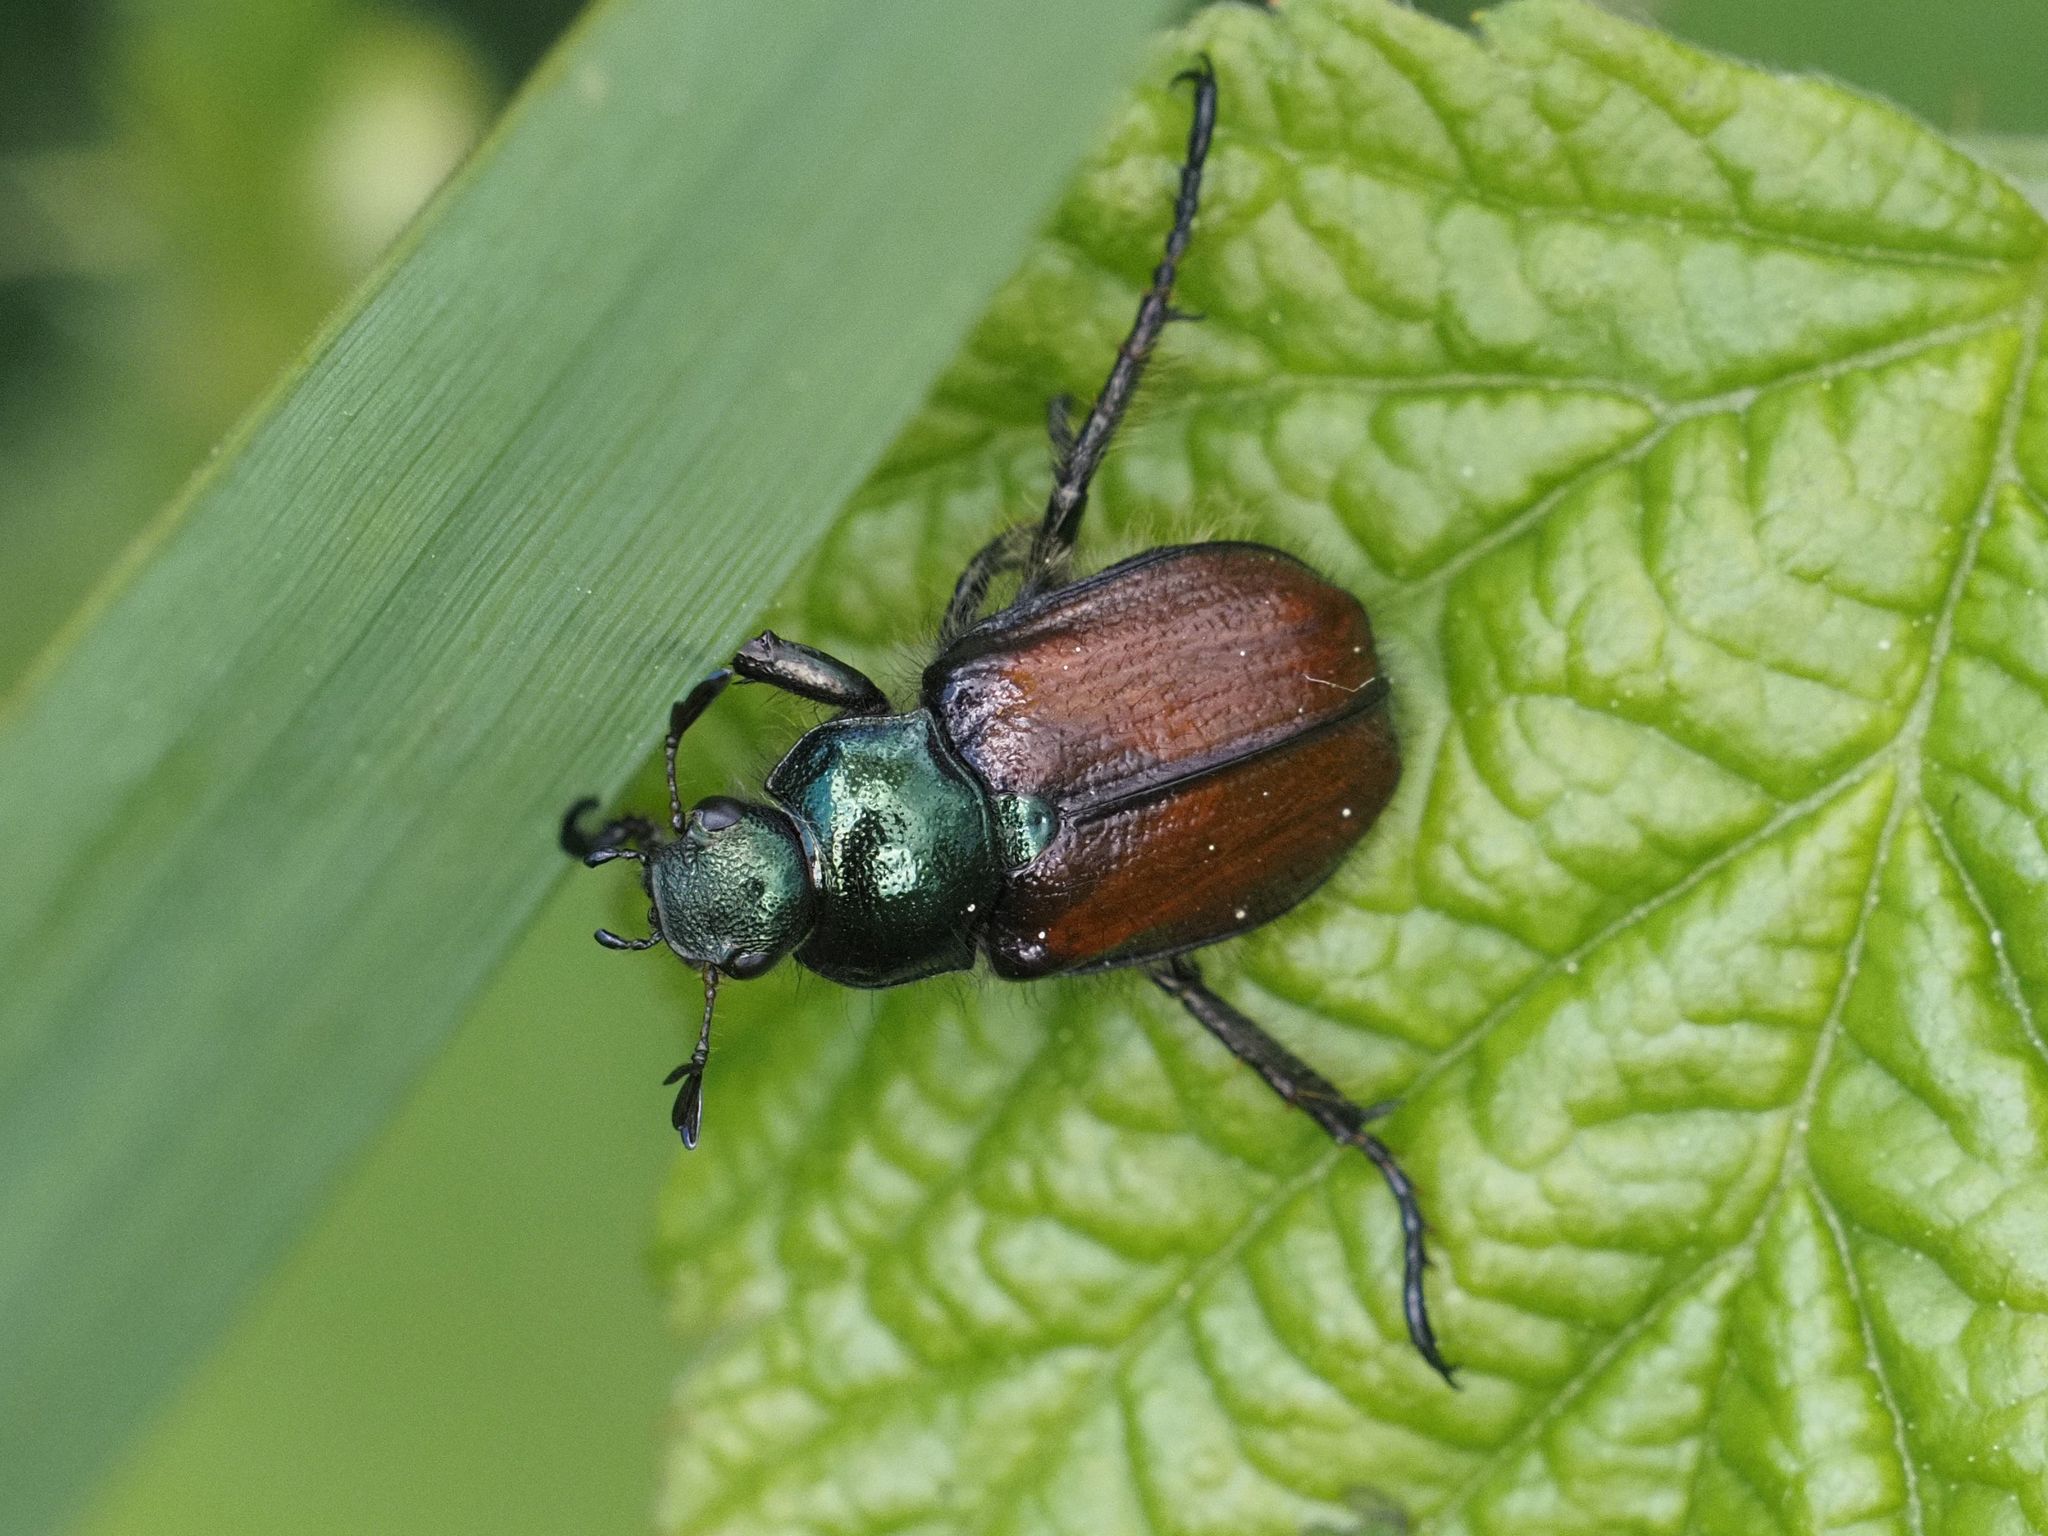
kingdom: Animalia
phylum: Arthropoda
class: Insecta
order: Coleoptera
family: Scarabaeidae
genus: Phyllopertha
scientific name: Phyllopertha horticola
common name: Garden chafer
